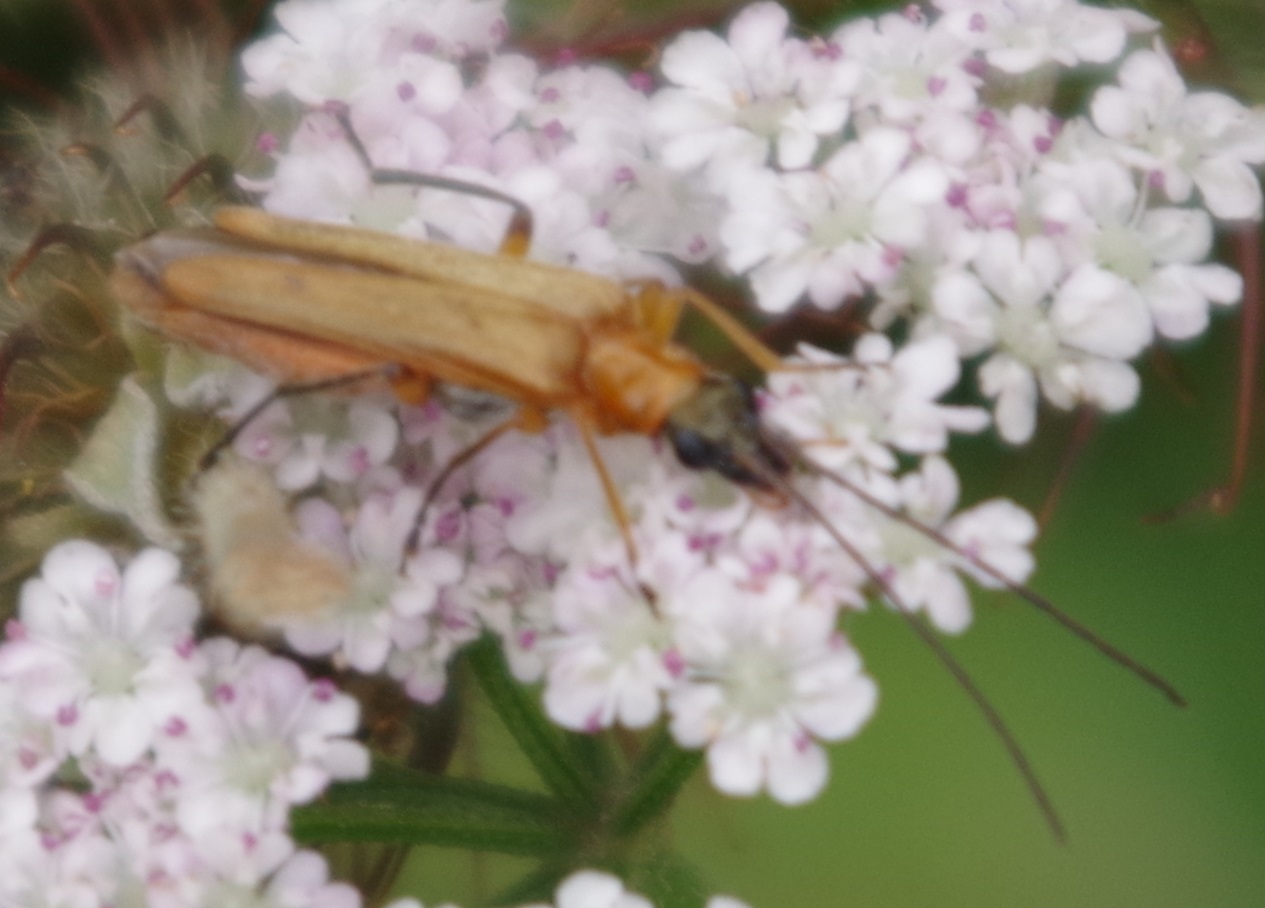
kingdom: Animalia
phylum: Arthropoda
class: Insecta
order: Coleoptera
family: Oedemeridae
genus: Oedemera
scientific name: Oedemera podagrariae
